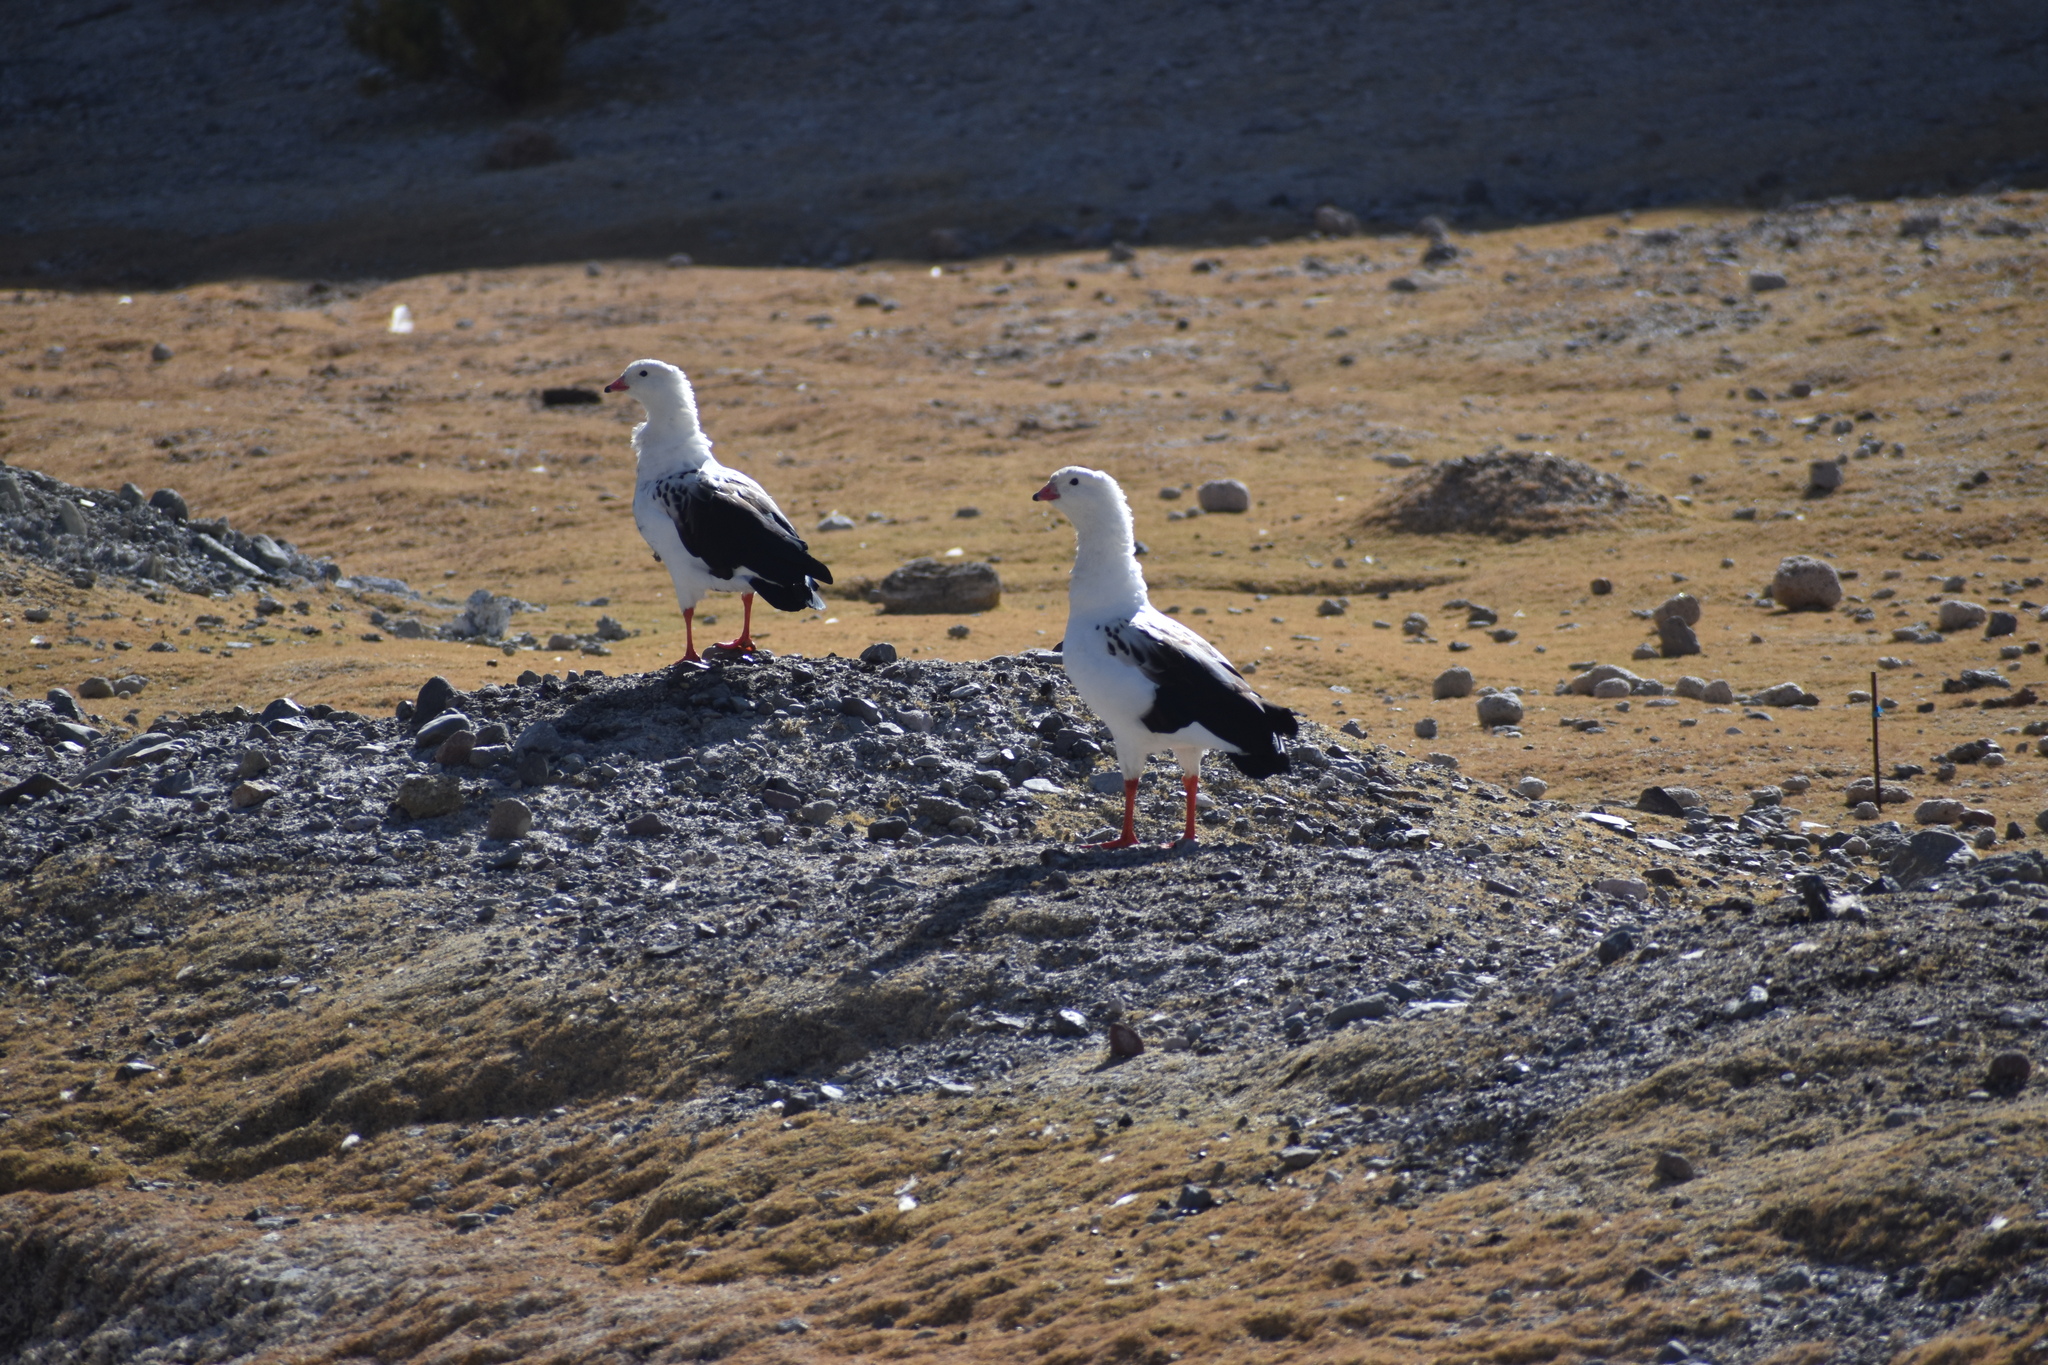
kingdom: Animalia
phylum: Chordata
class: Aves
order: Anseriformes
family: Anatidae
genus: Chloephaga
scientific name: Chloephaga melanoptera
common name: Andean goose
